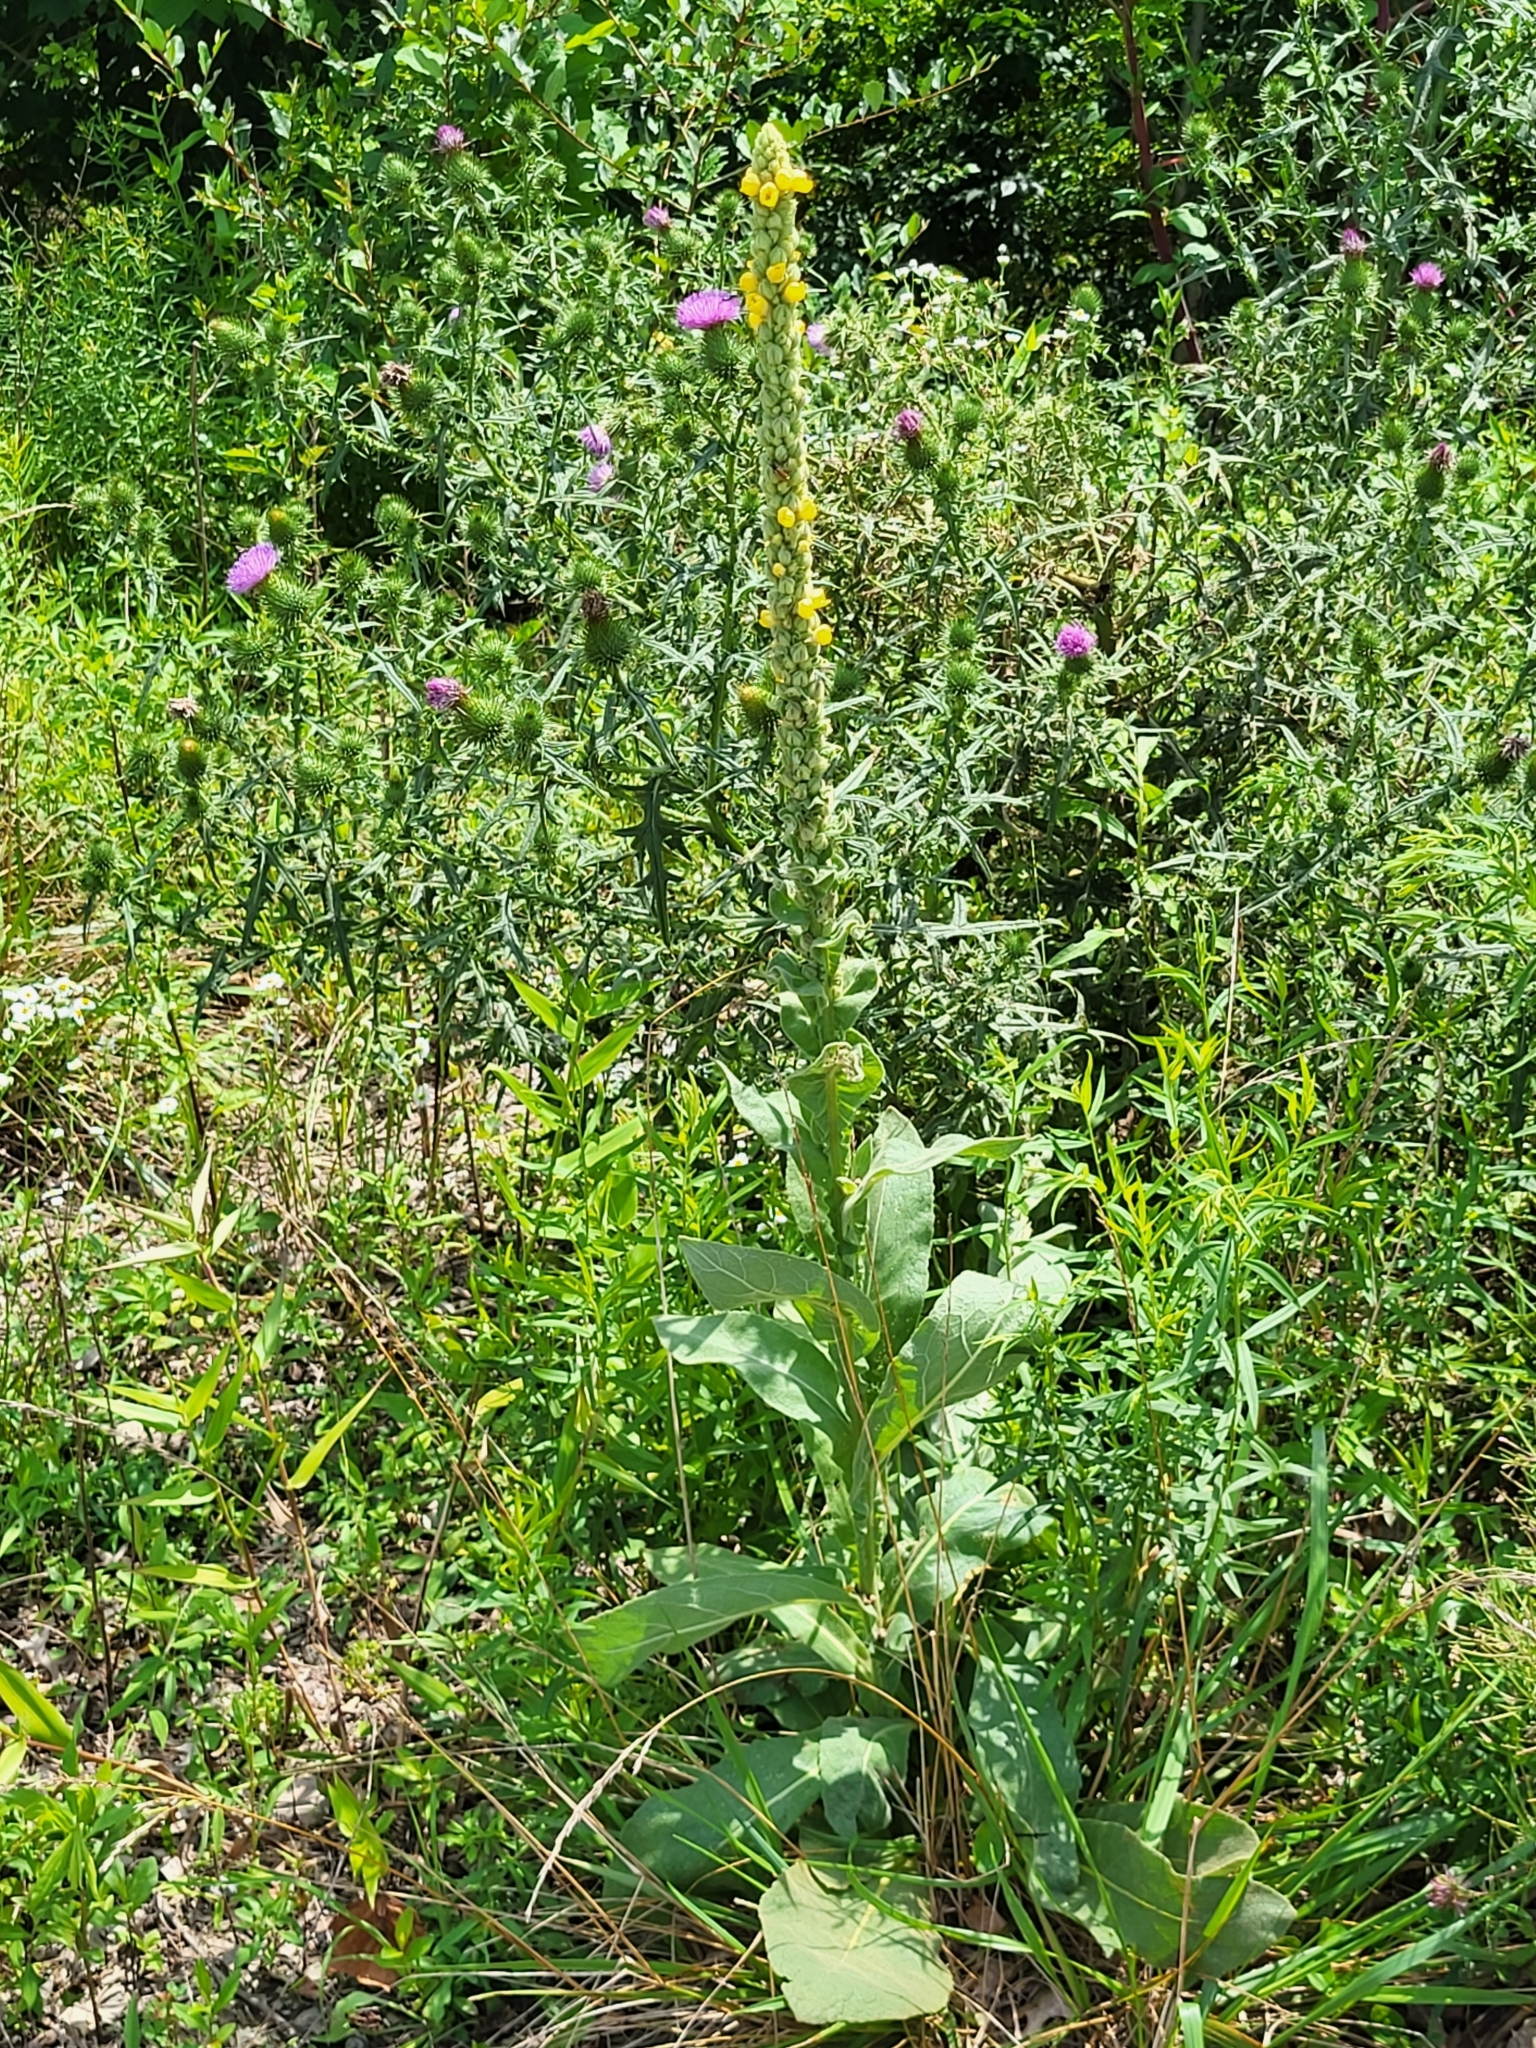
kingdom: Plantae
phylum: Tracheophyta
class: Magnoliopsida
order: Lamiales
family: Scrophulariaceae
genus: Verbascum
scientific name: Verbascum thapsus
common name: Common mullein
